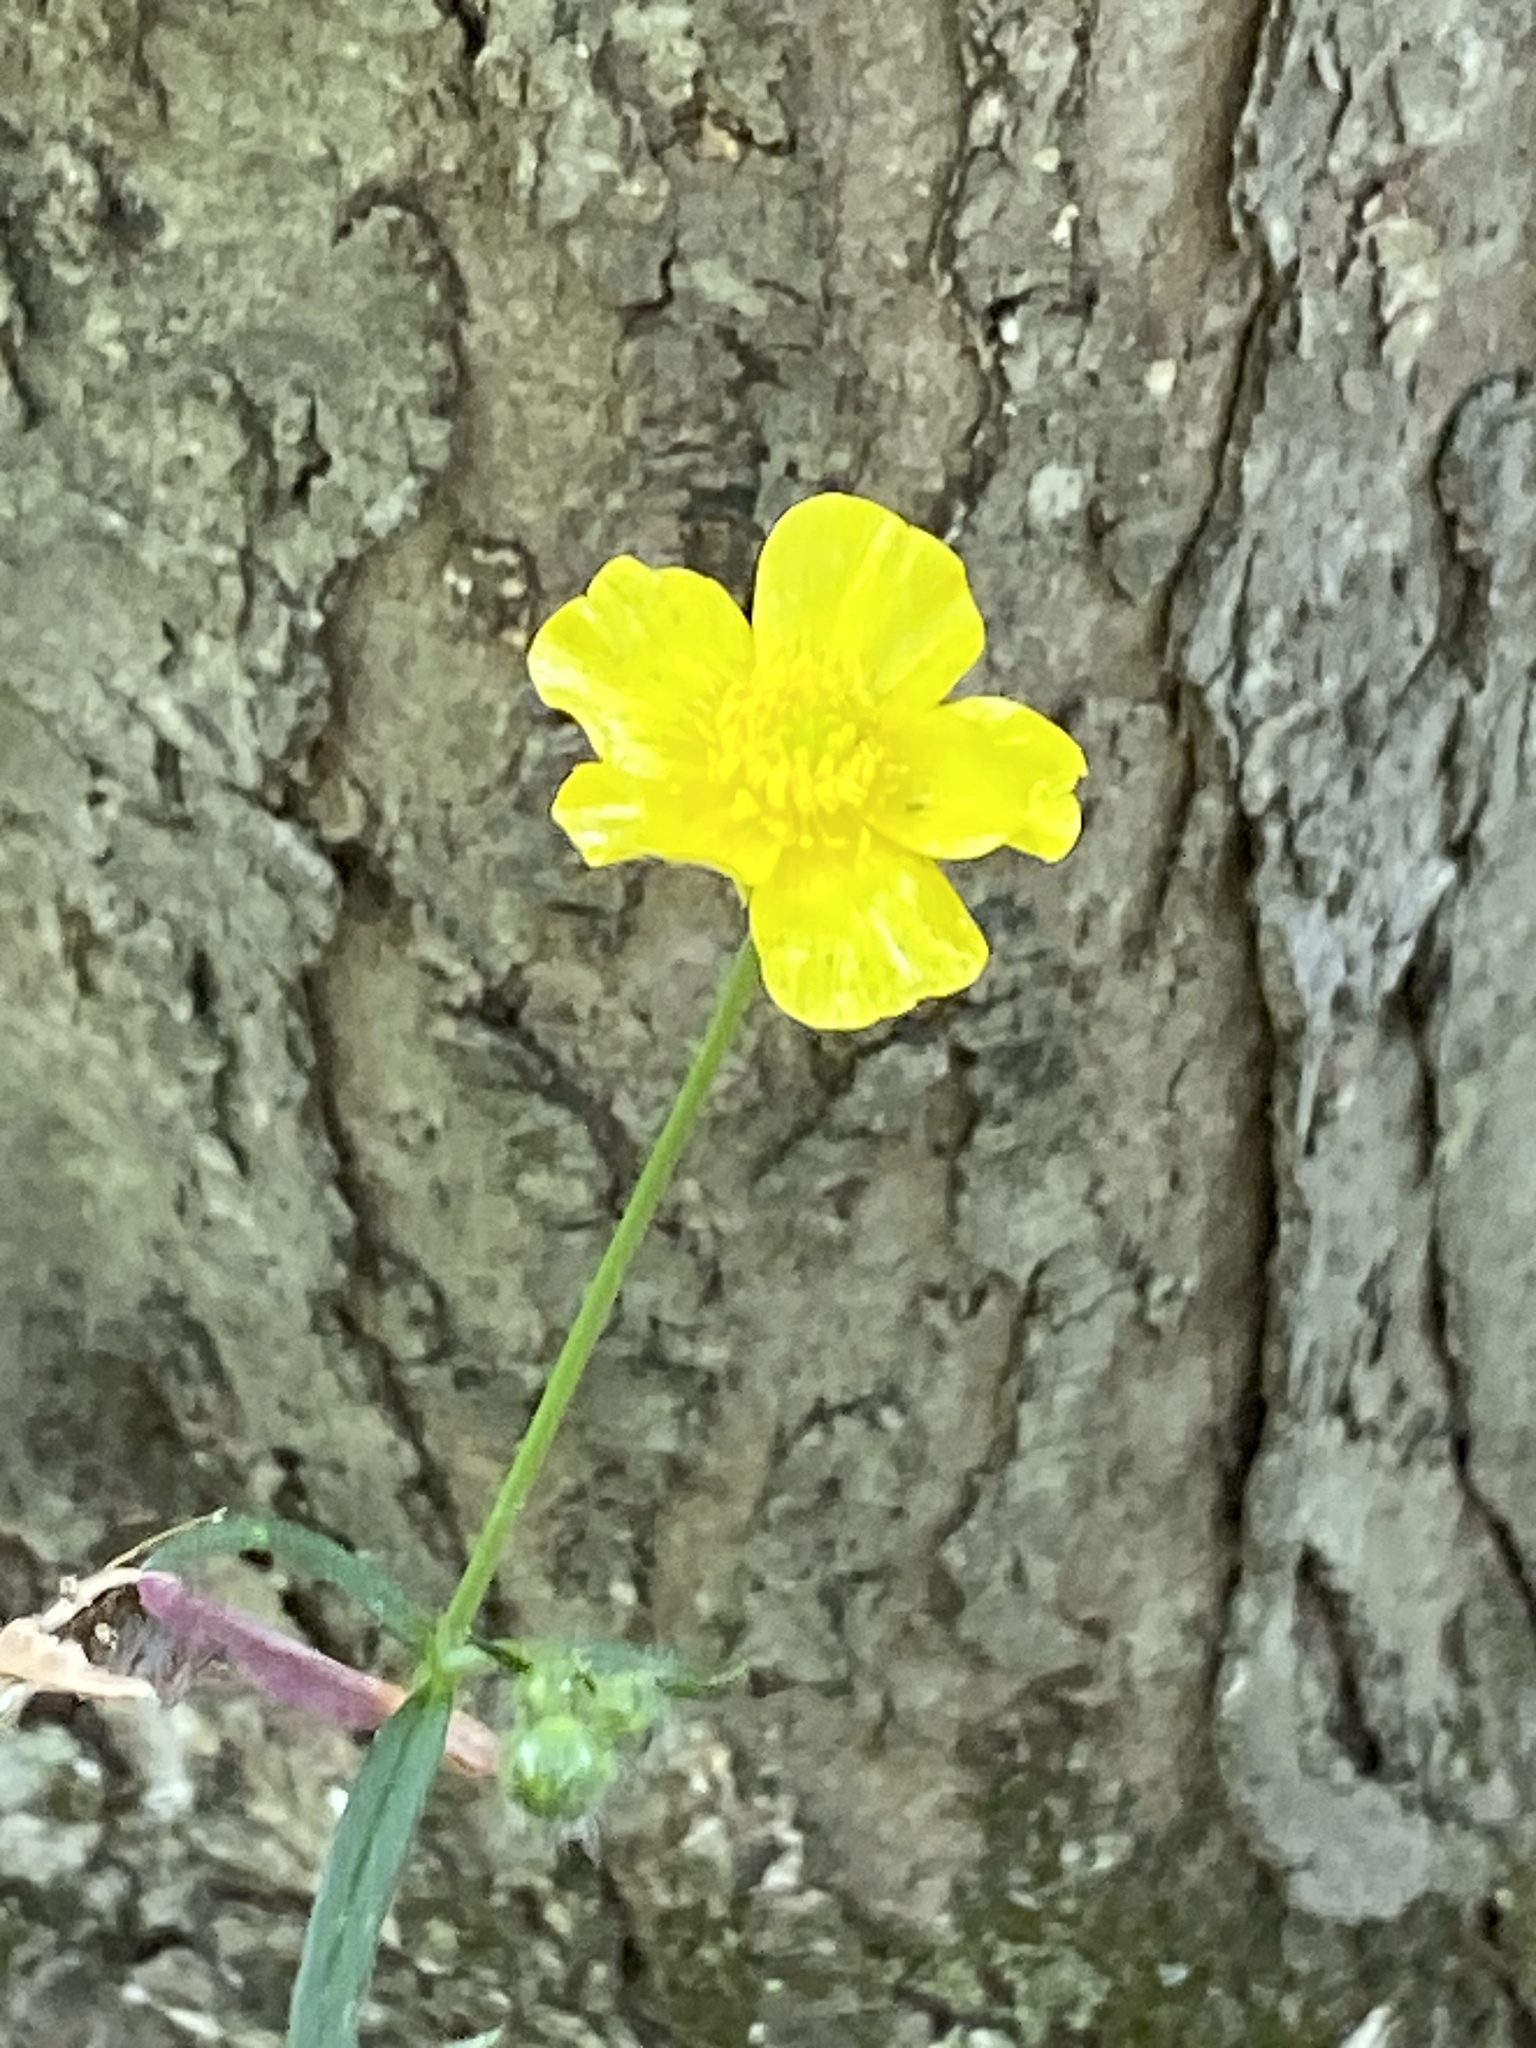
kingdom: Plantae
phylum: Tracheophyta
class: Magnoliopsida
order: Ranunculales
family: Ranunculaceae
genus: Ranunculus
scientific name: Ranunculus acris
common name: Meadow buttercup
